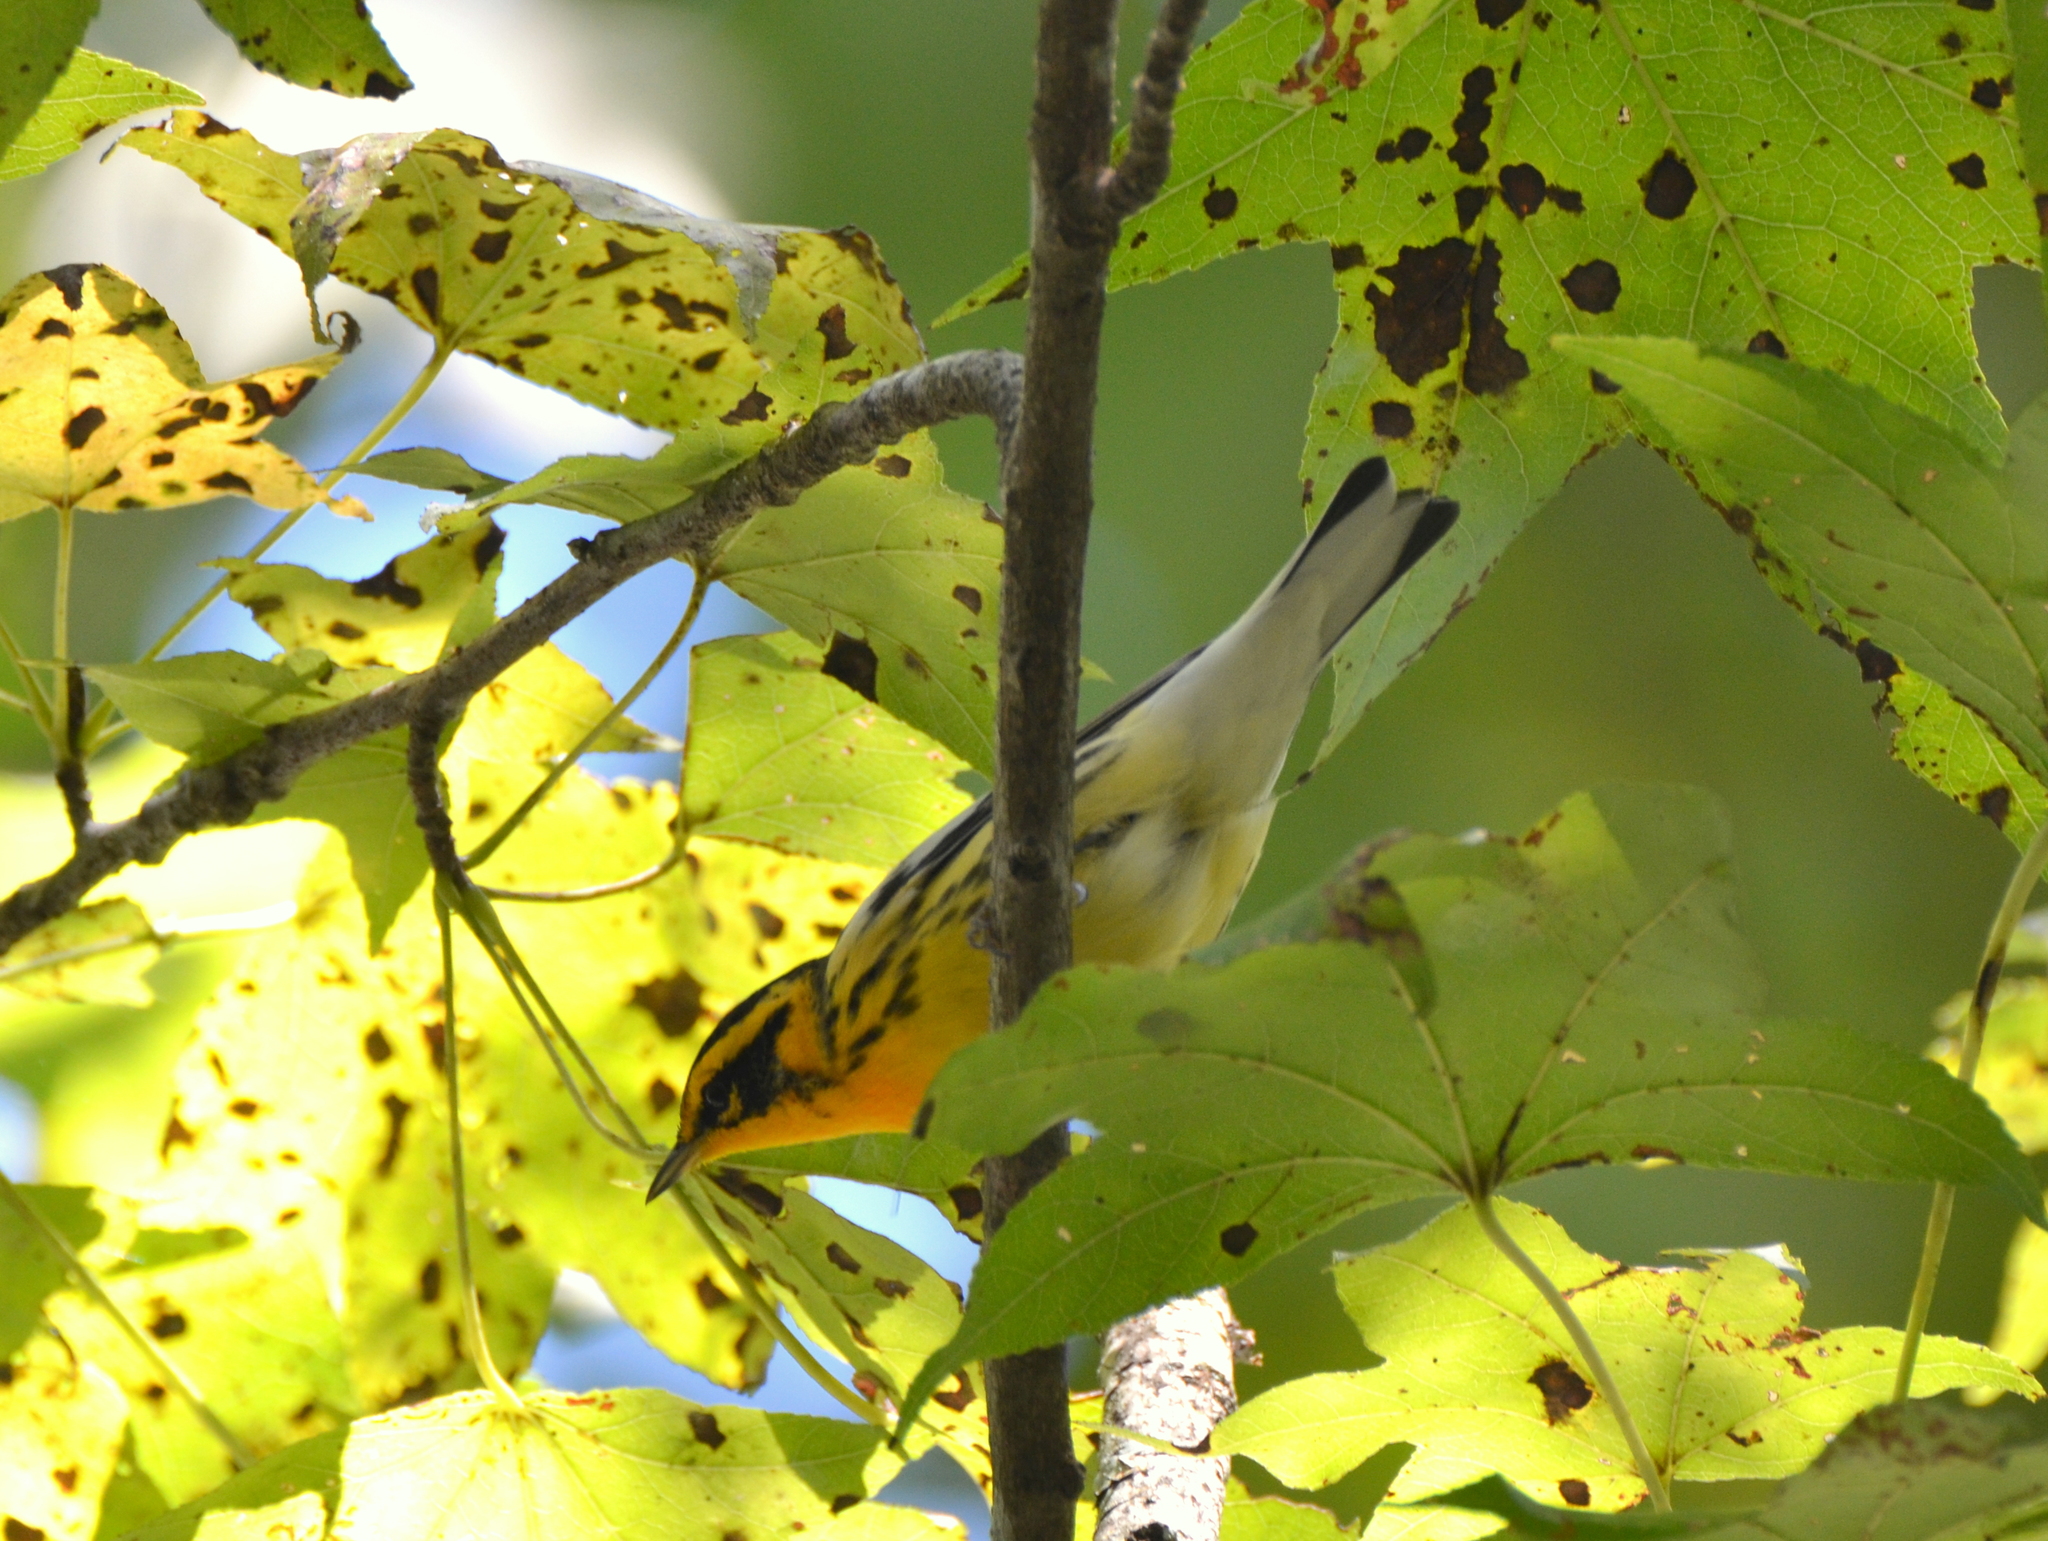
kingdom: Animalia
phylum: Chordata
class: Aves
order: Passeriformes
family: Parulidae
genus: Setophaga
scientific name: Setophaga fusca
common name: Blackburnian warbler
